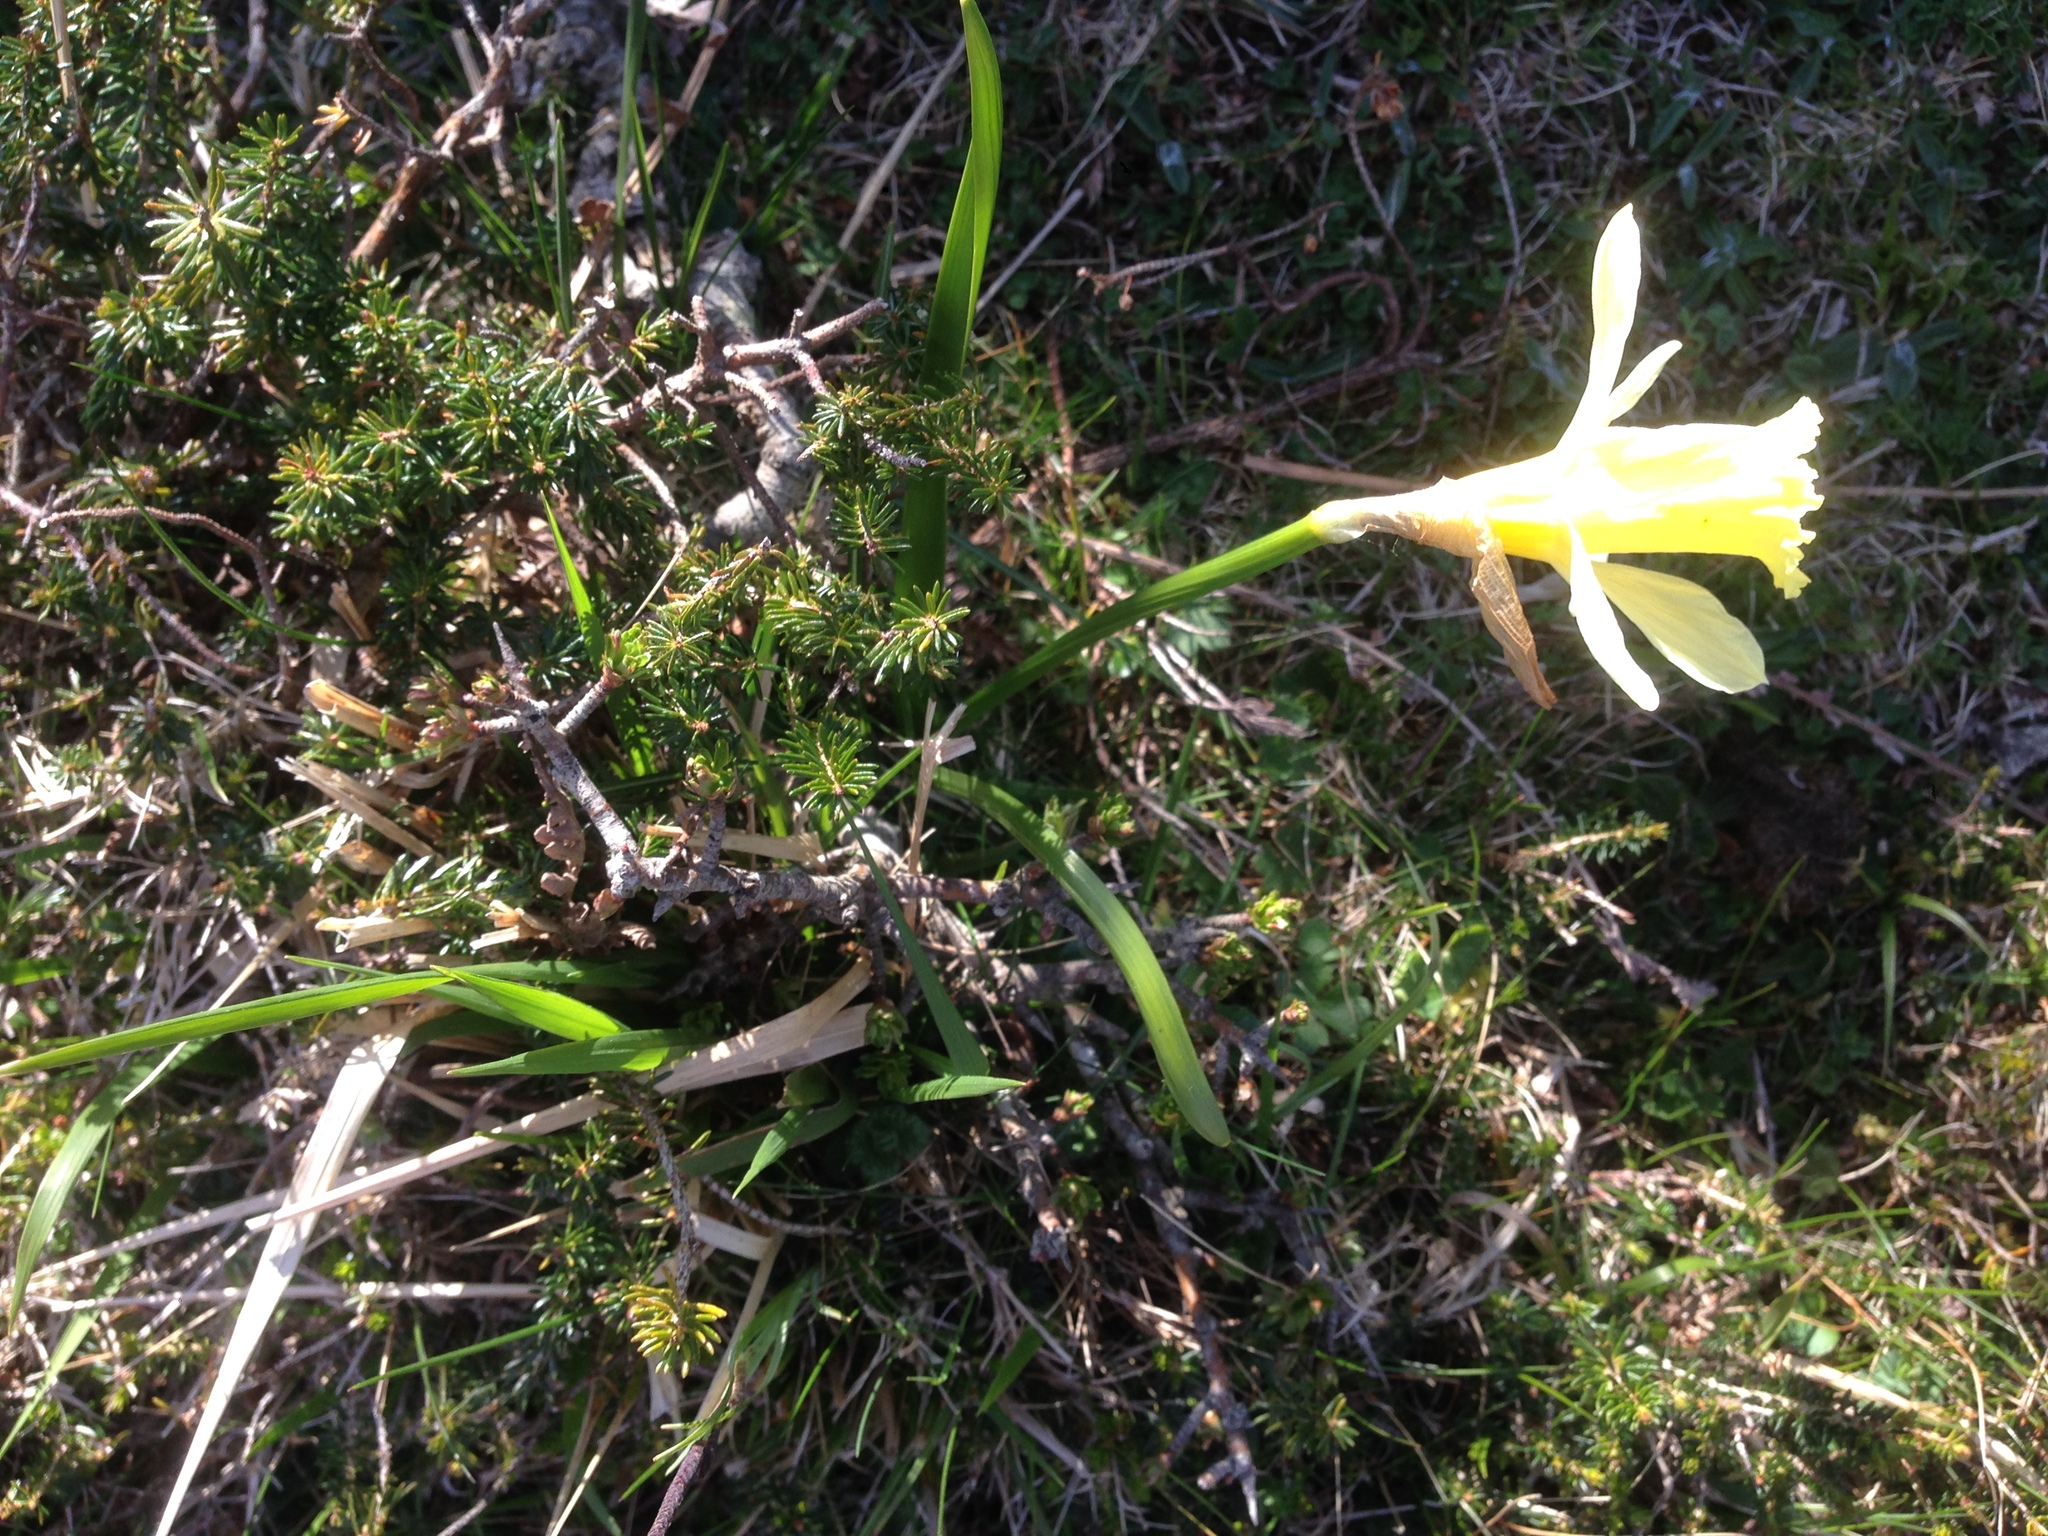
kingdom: Plantae
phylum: Tracheophyta
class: Liliopsida
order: Asparagales
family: Amaryllidaceae
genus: Narcissus
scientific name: Narcissus minor
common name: Lesser daffodil
